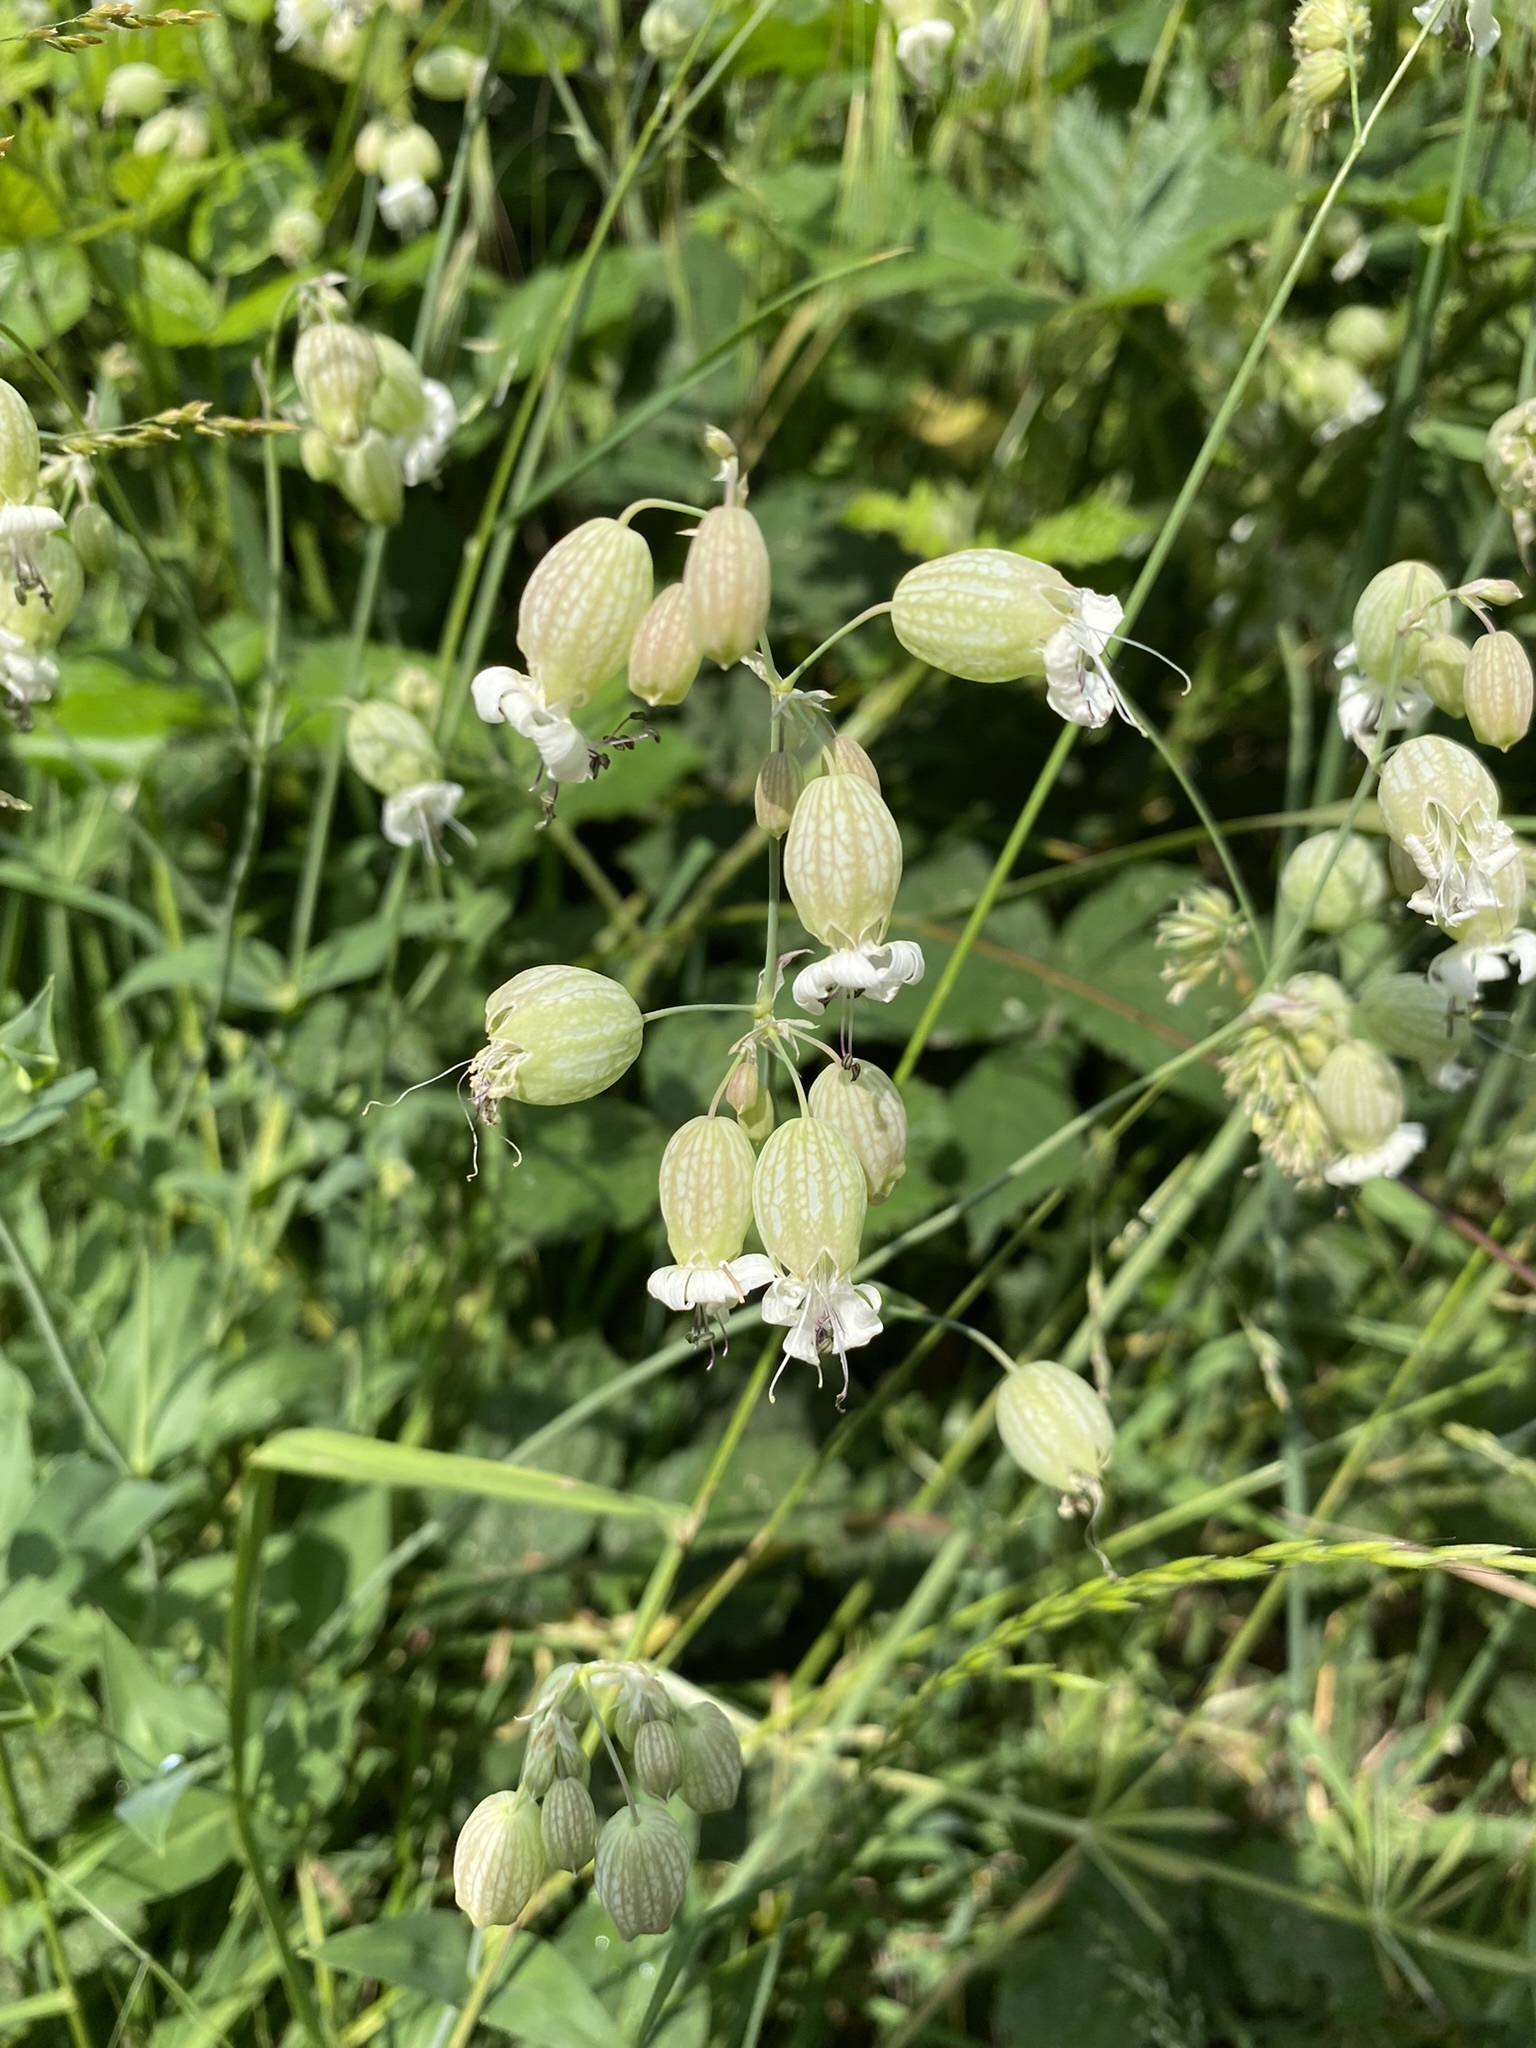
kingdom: Plantae
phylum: Tracheophyta
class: Magnoliopsida
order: Caryophyllales
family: Caryophyllaceae
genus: Silene
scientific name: Silene vulgaris
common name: Bladder campion
